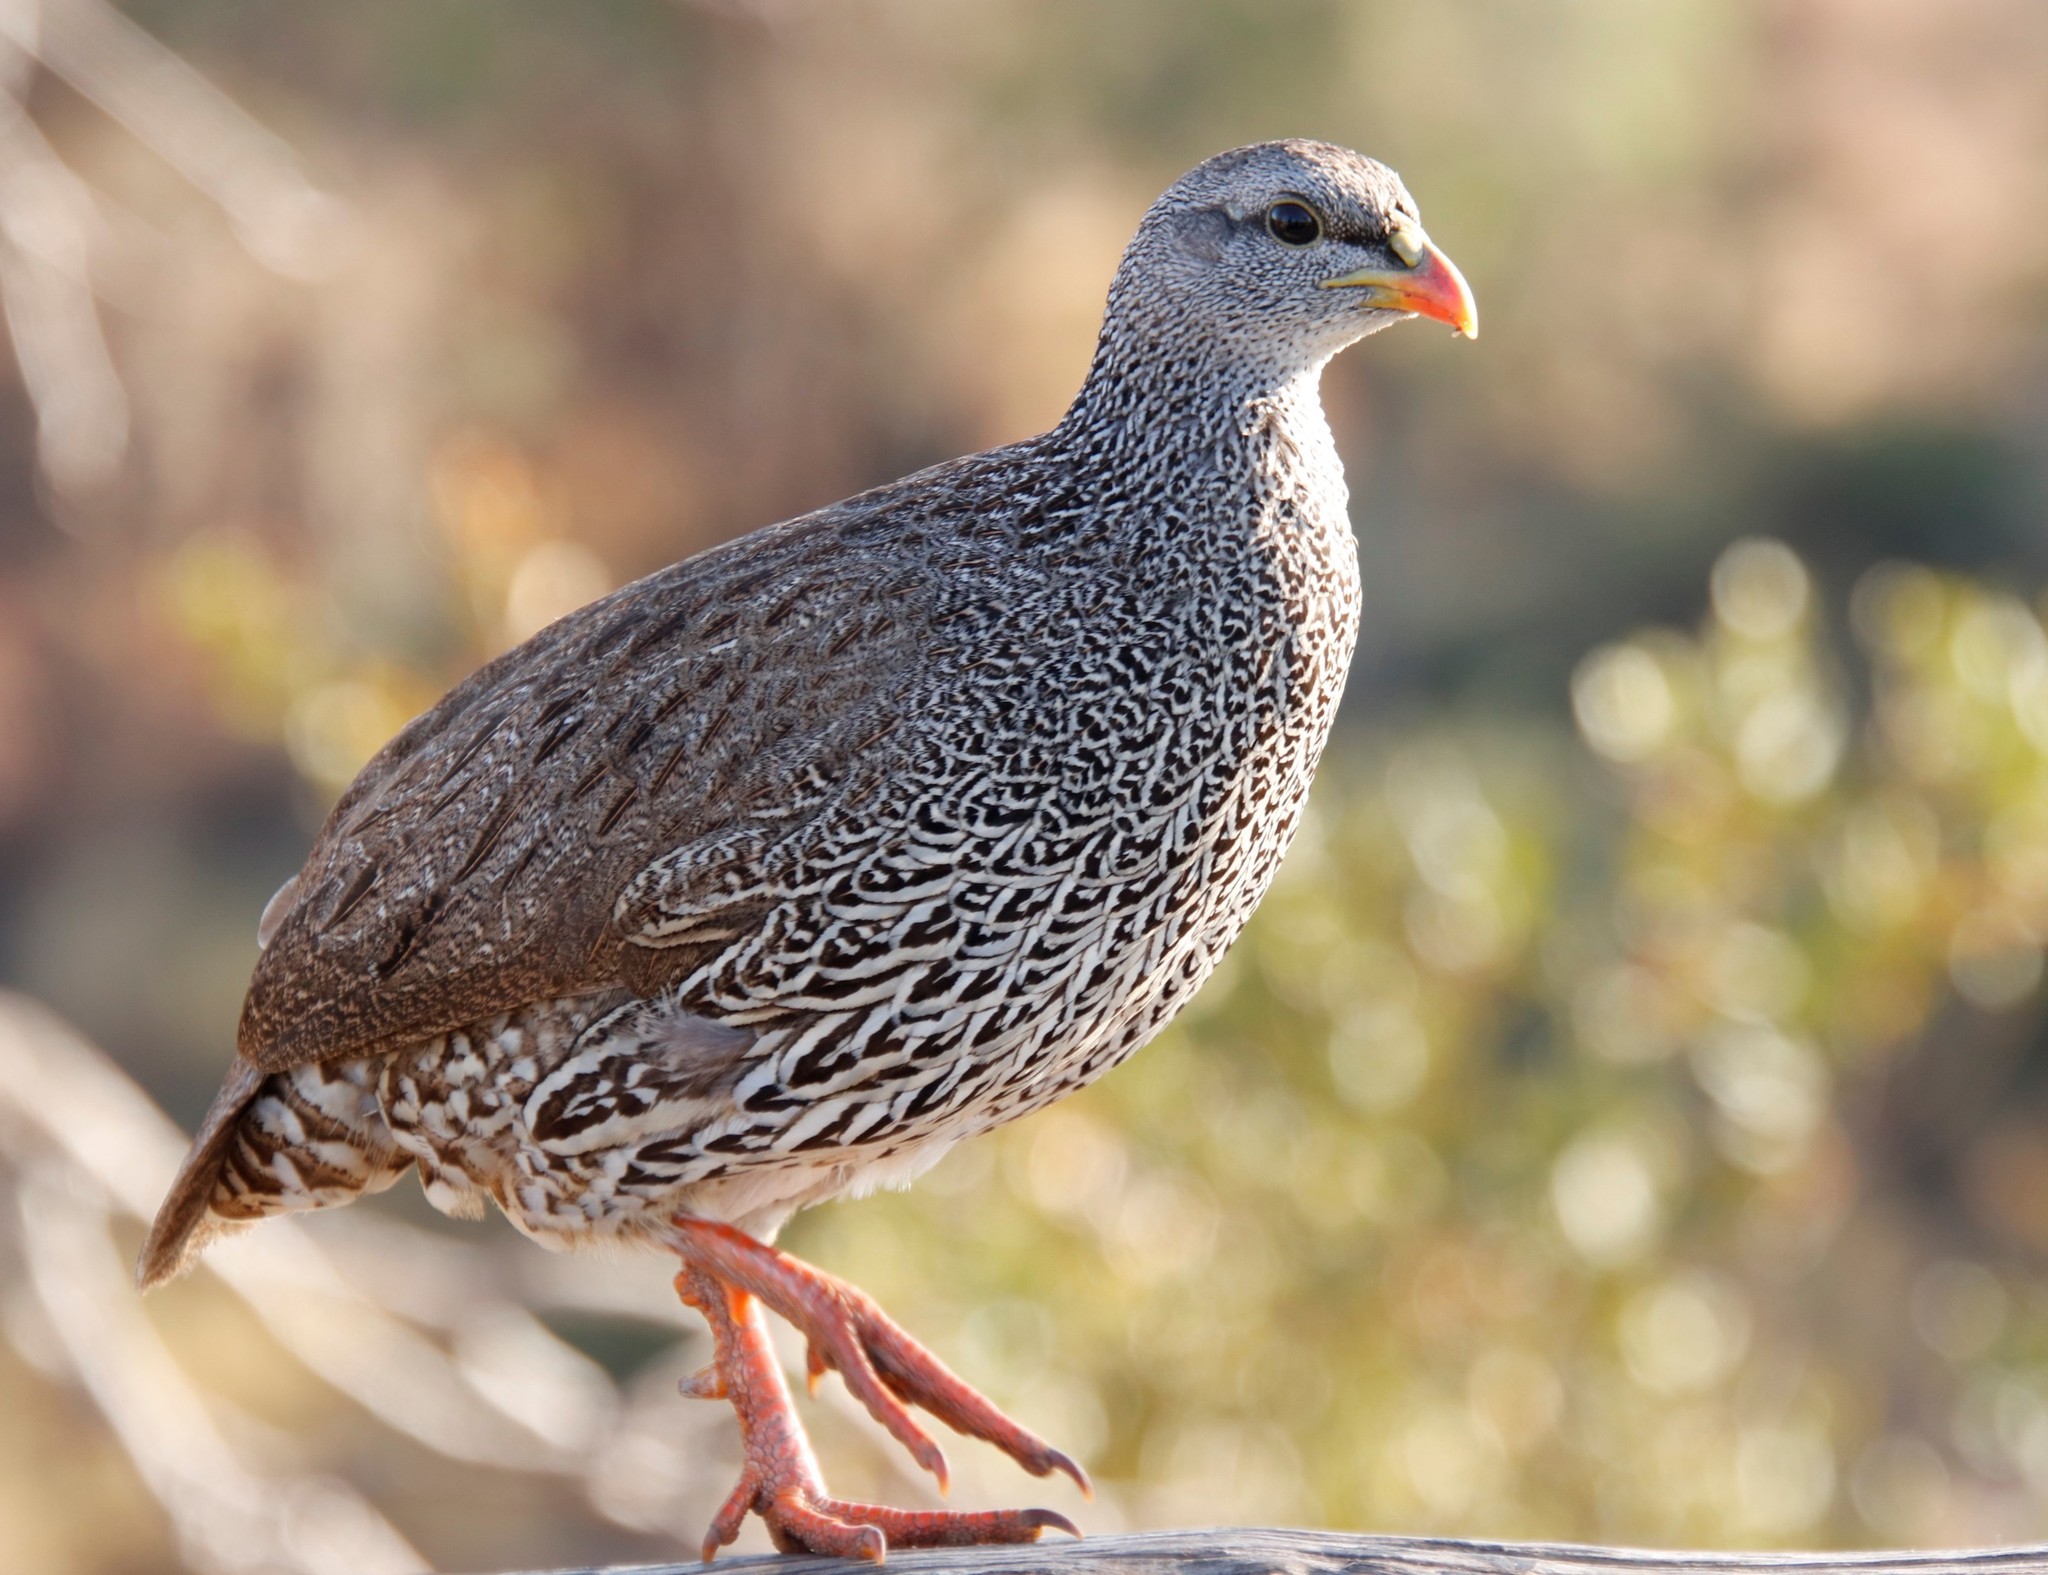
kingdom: Animalia
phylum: Chordata
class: Aves
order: Galliformes
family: Phasianidae
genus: Pternistis
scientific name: Pternistis natalensis
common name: Natal spurfowl
